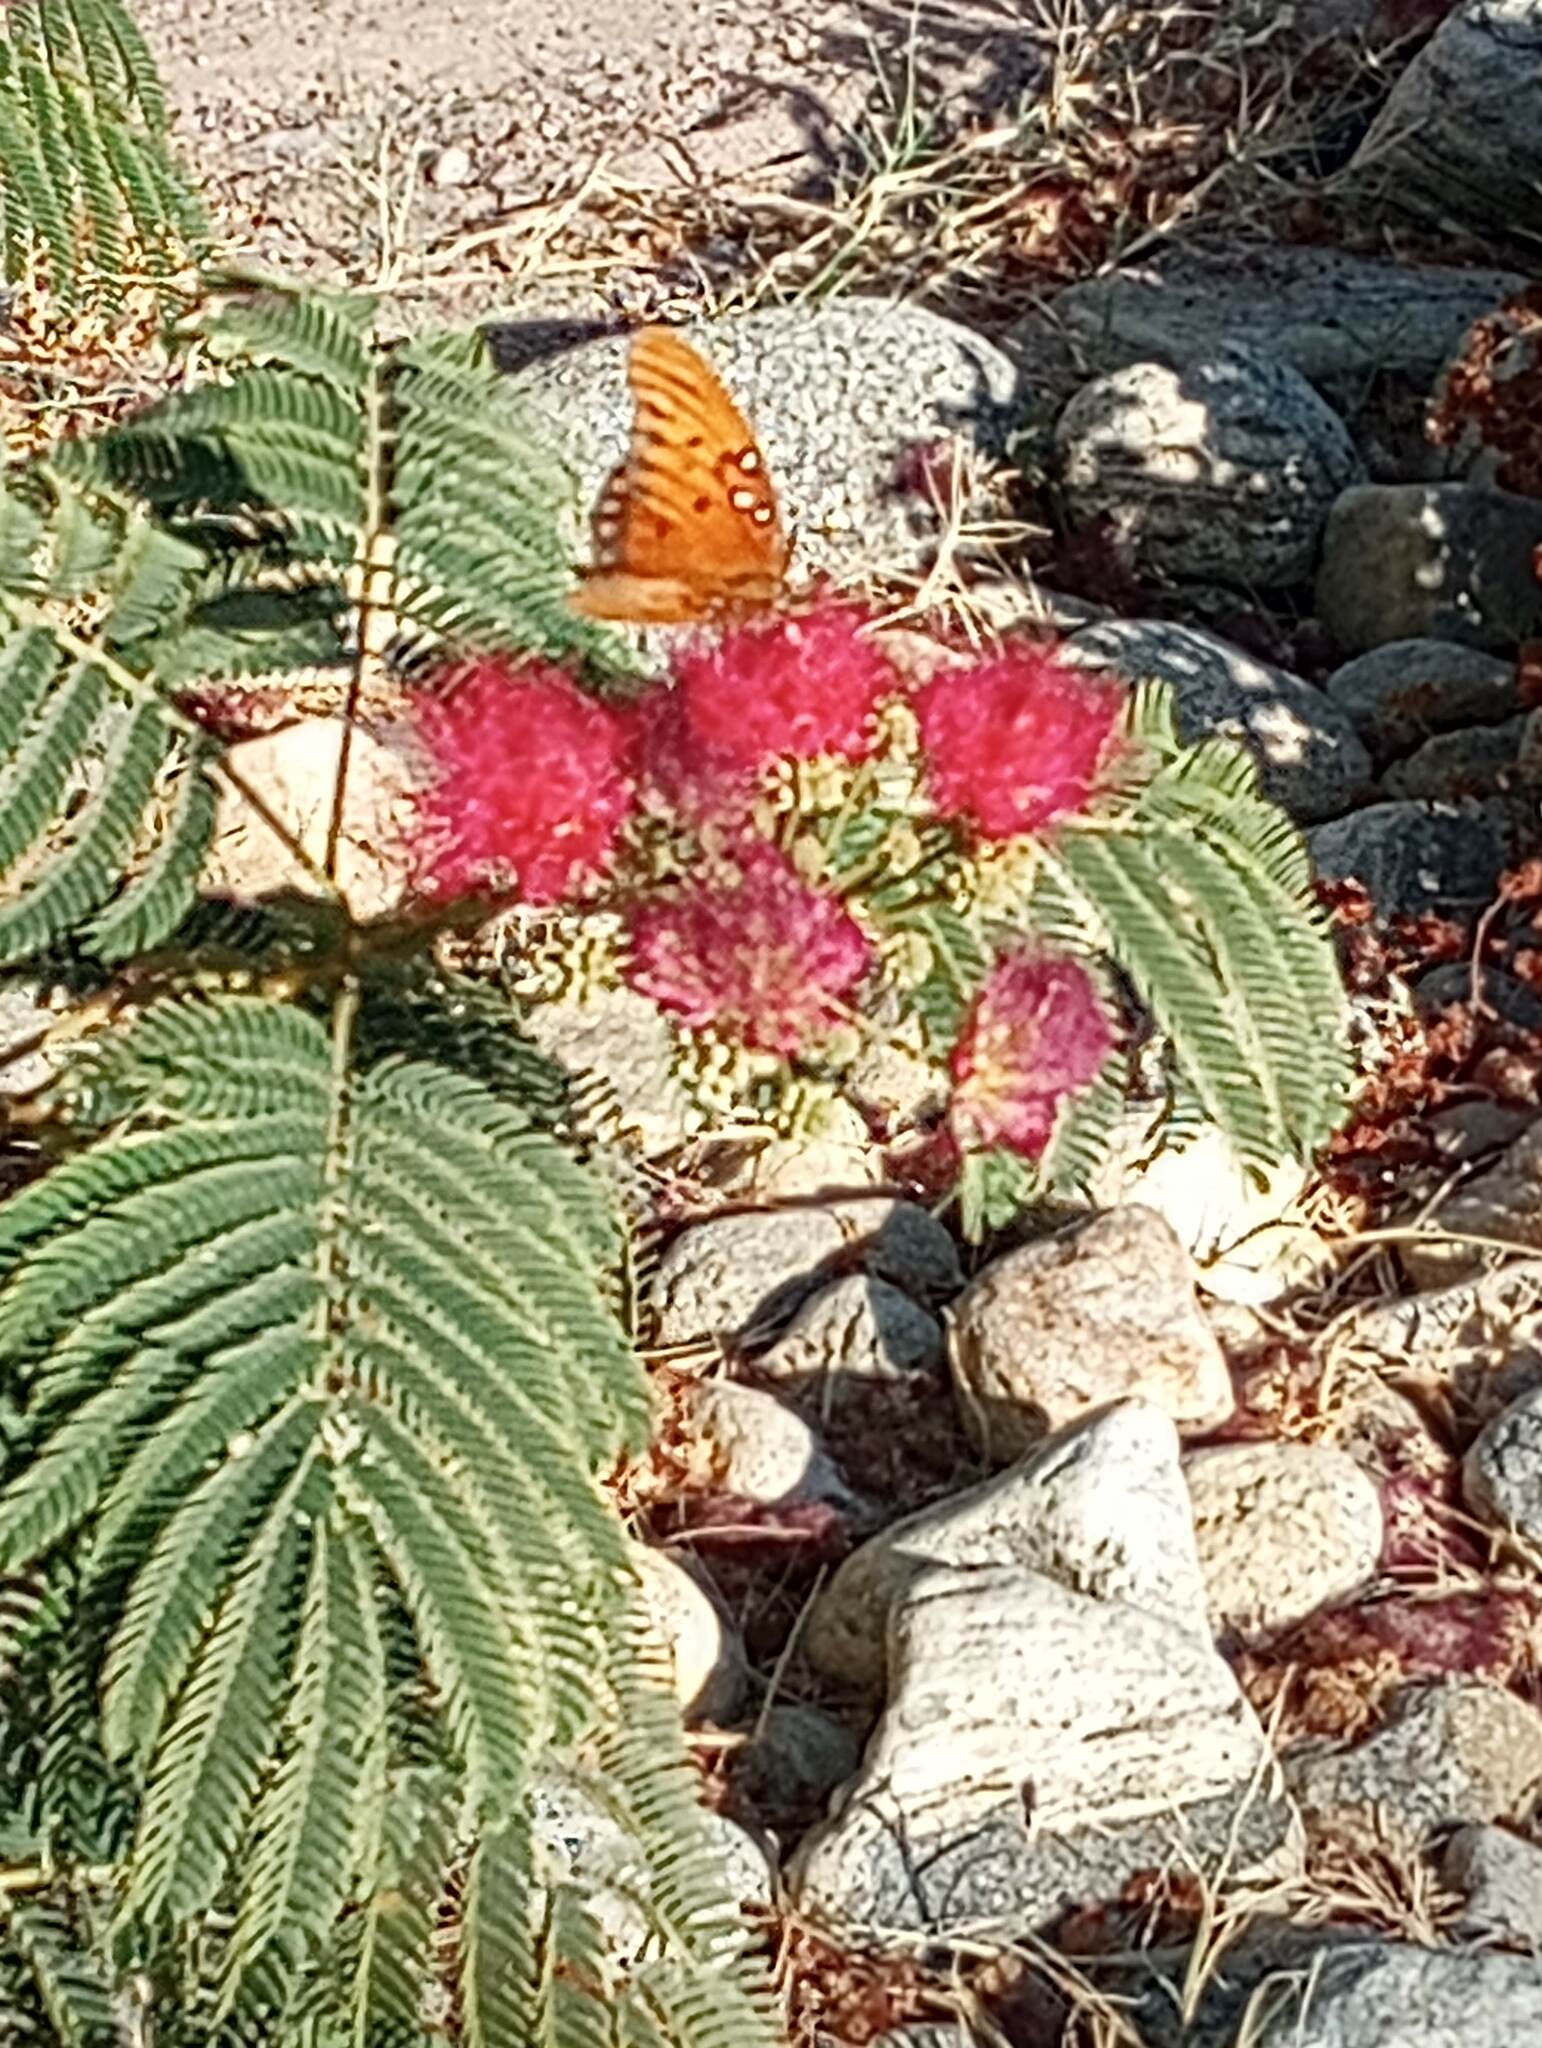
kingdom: Animalia
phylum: Arthropoda
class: Insecta
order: Lepidoptera
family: Nymphalidae
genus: Dione
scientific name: Dione vanillae
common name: Gulf fritillary
